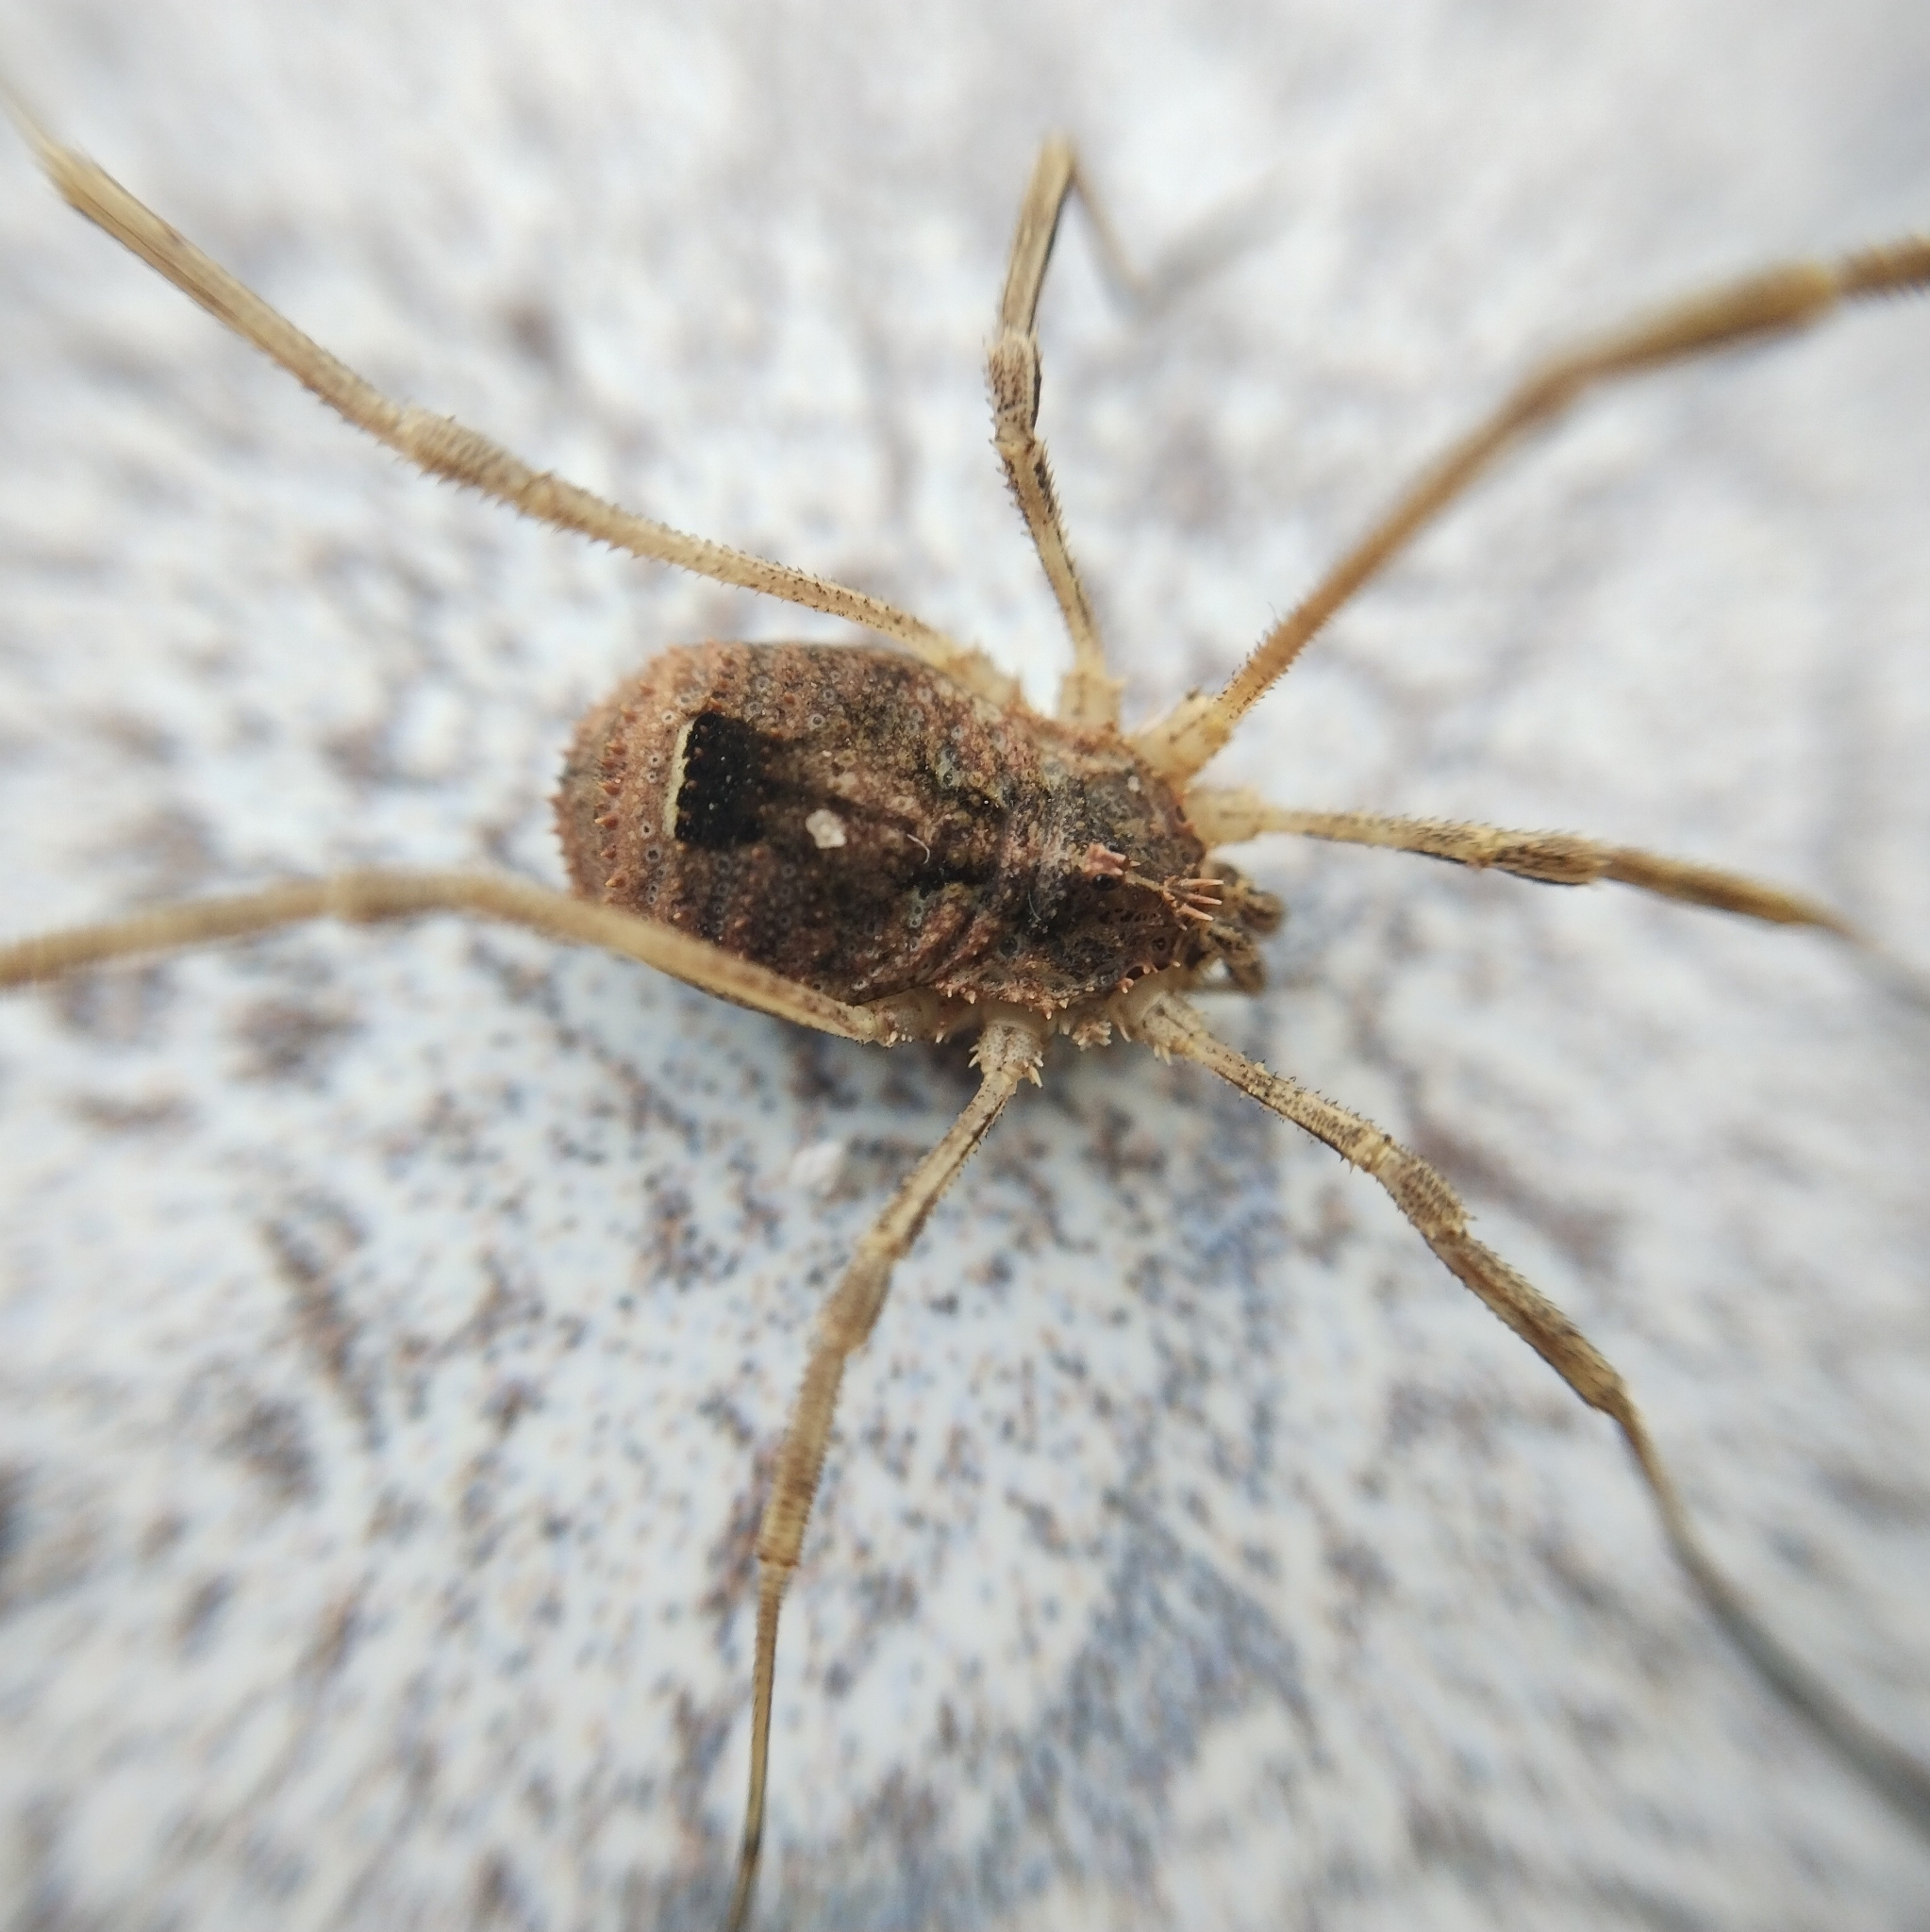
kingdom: Animalia
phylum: Arthropoda
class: Arachnida
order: Opiliones
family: Phalangiidae
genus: Lacinius
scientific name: Lacinius horridus
